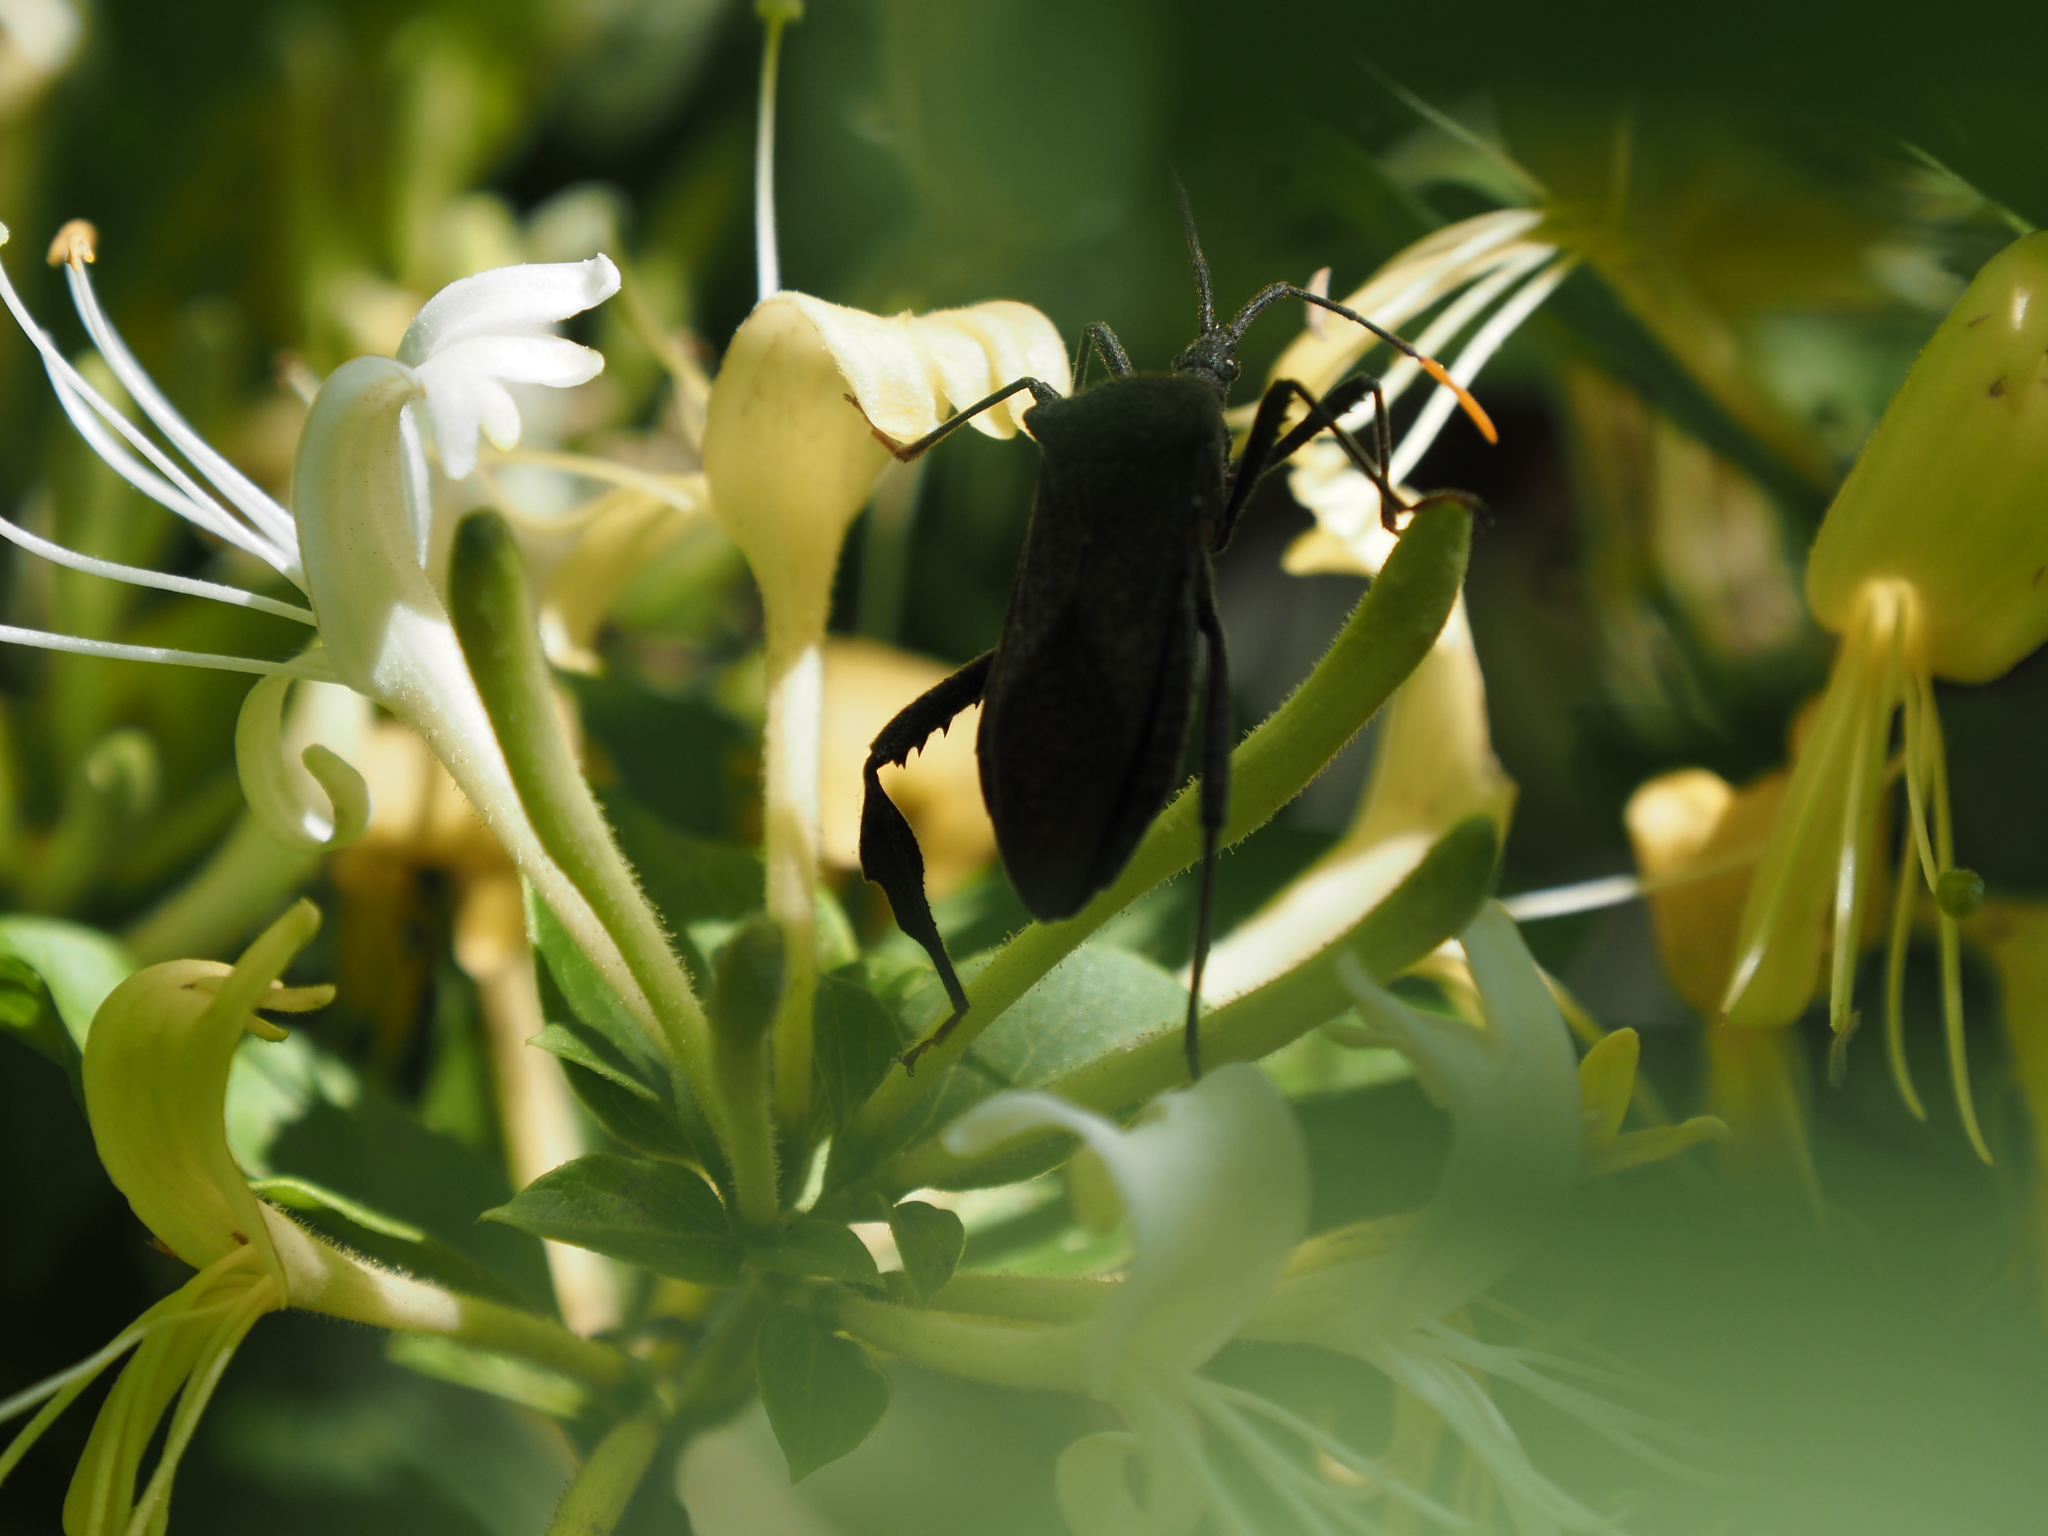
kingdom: Animalia
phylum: Arthropoda
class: Insecta
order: Hemiptera
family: Coreidae
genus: Acanthocephala
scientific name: Acanthocephala terminalis
